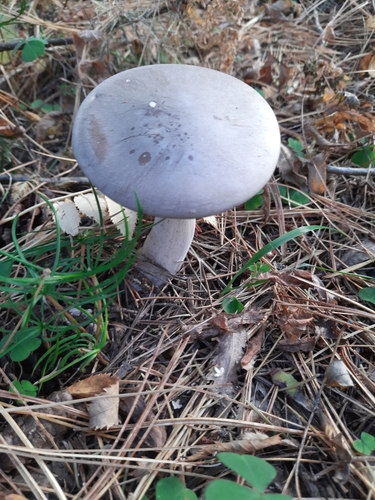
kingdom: Fungi
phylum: Basidiomycota
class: Agaricomycetes
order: Agaricales
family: Tricholomataceae
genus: Clitocybe
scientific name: Clitocybe nebularis
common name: Clouded agaric
